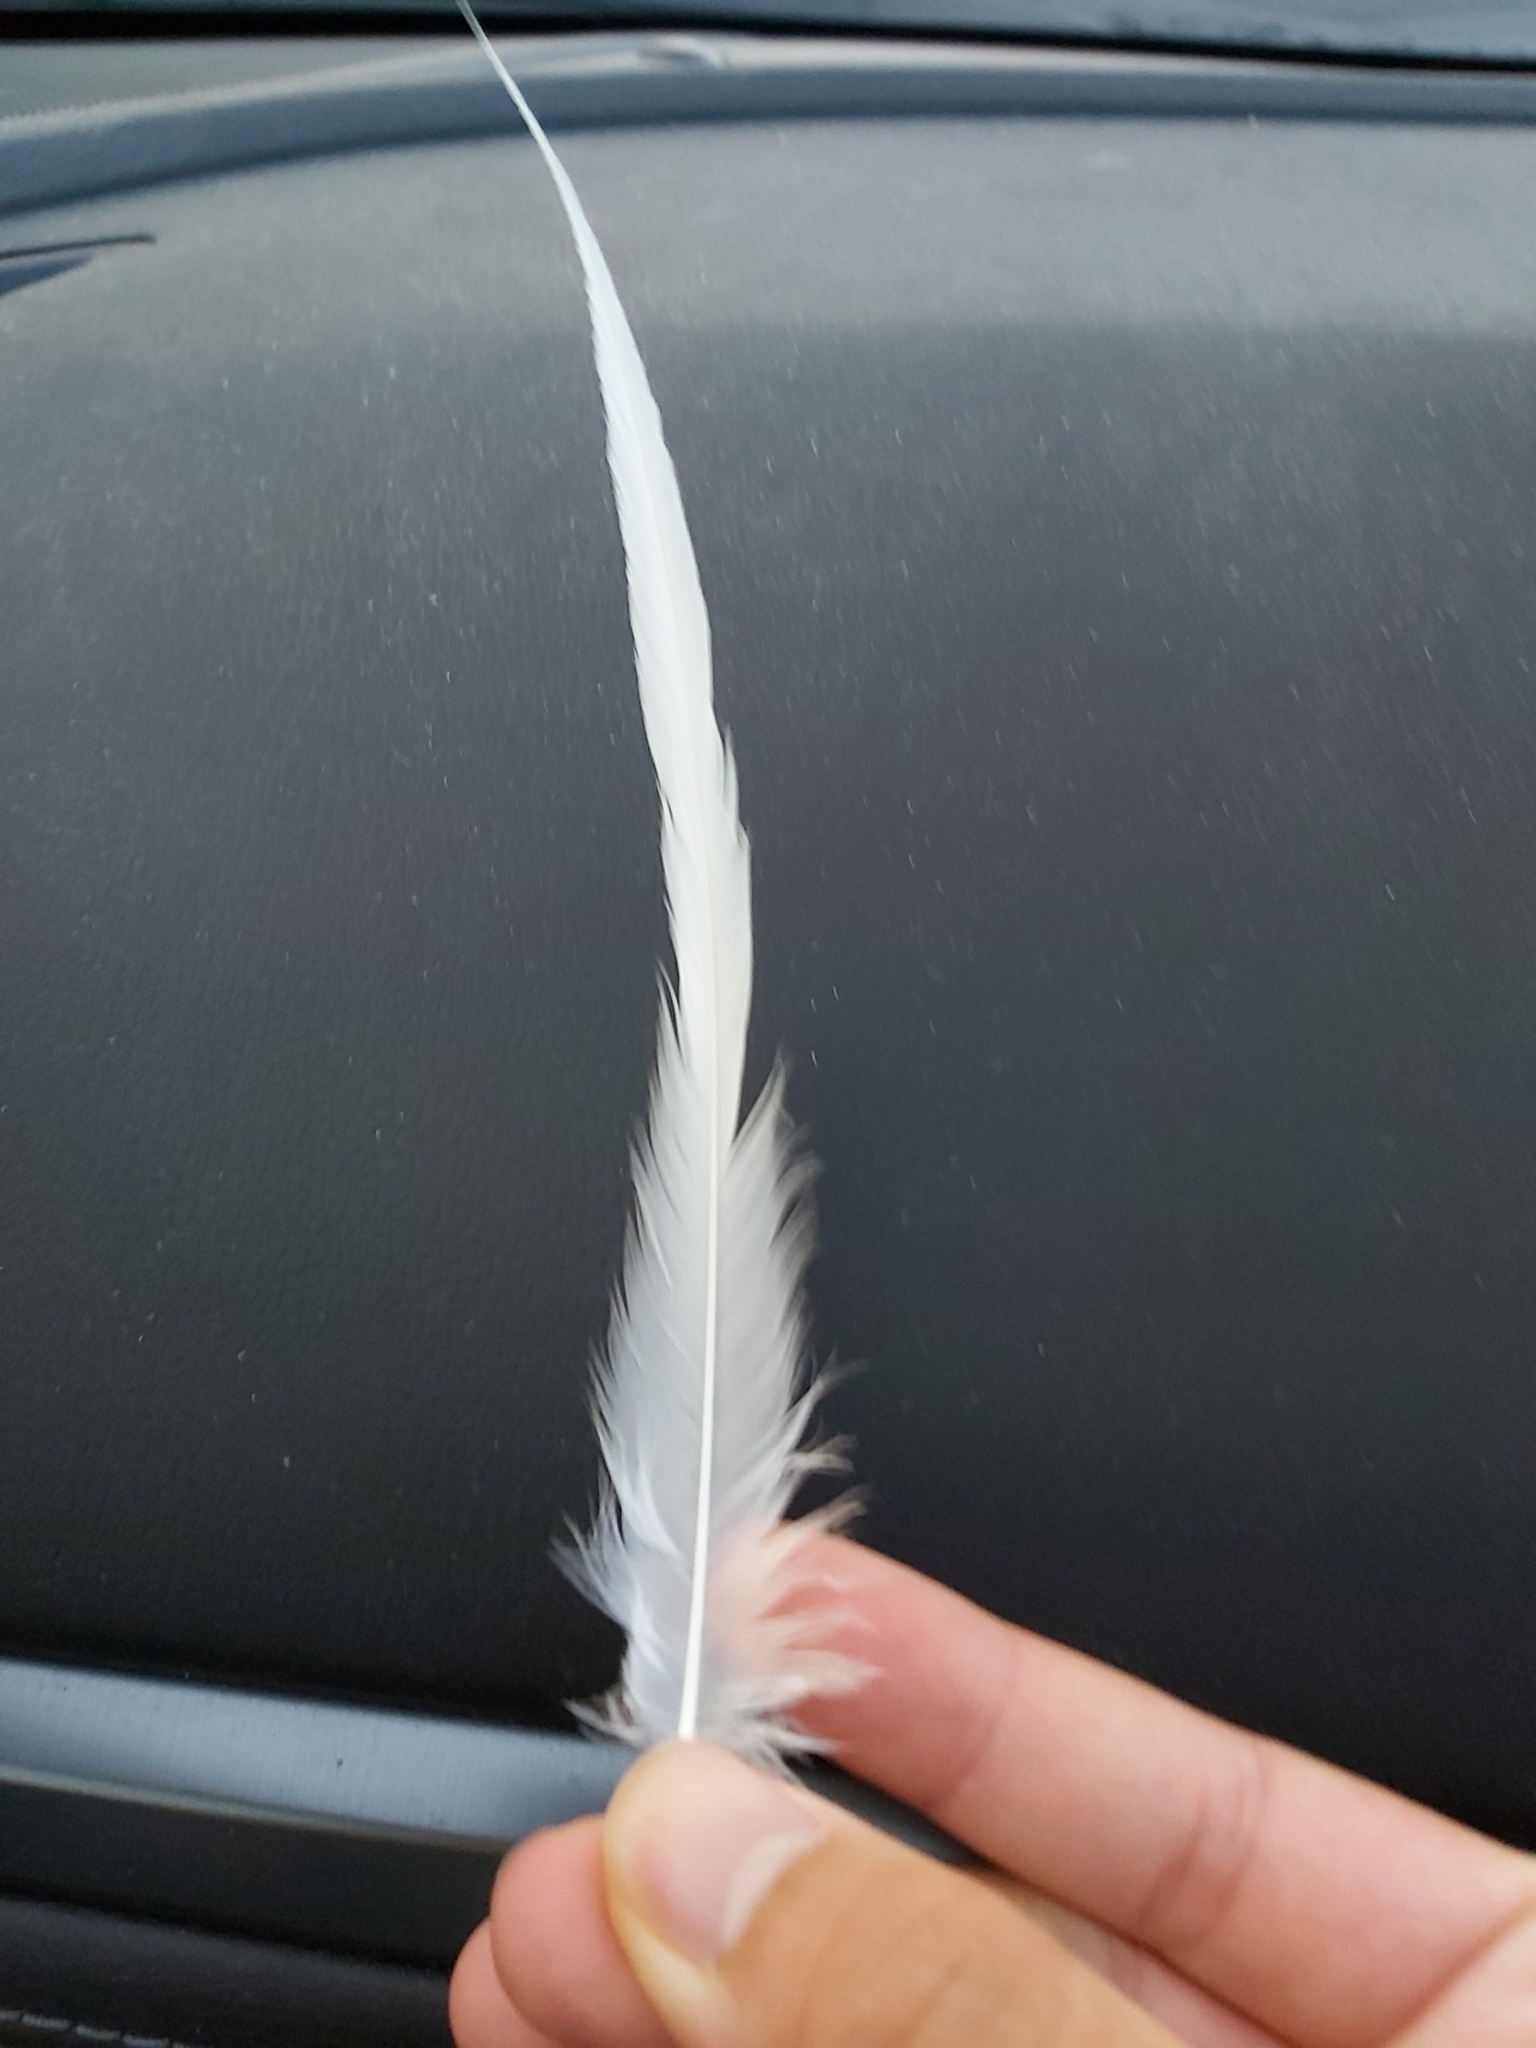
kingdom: Animalia
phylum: Chordata
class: Aves
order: Pelecaniformes
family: Pelecanidae
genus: Pelecanus
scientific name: Pelecanus conspicillatus
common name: Australian pelican
